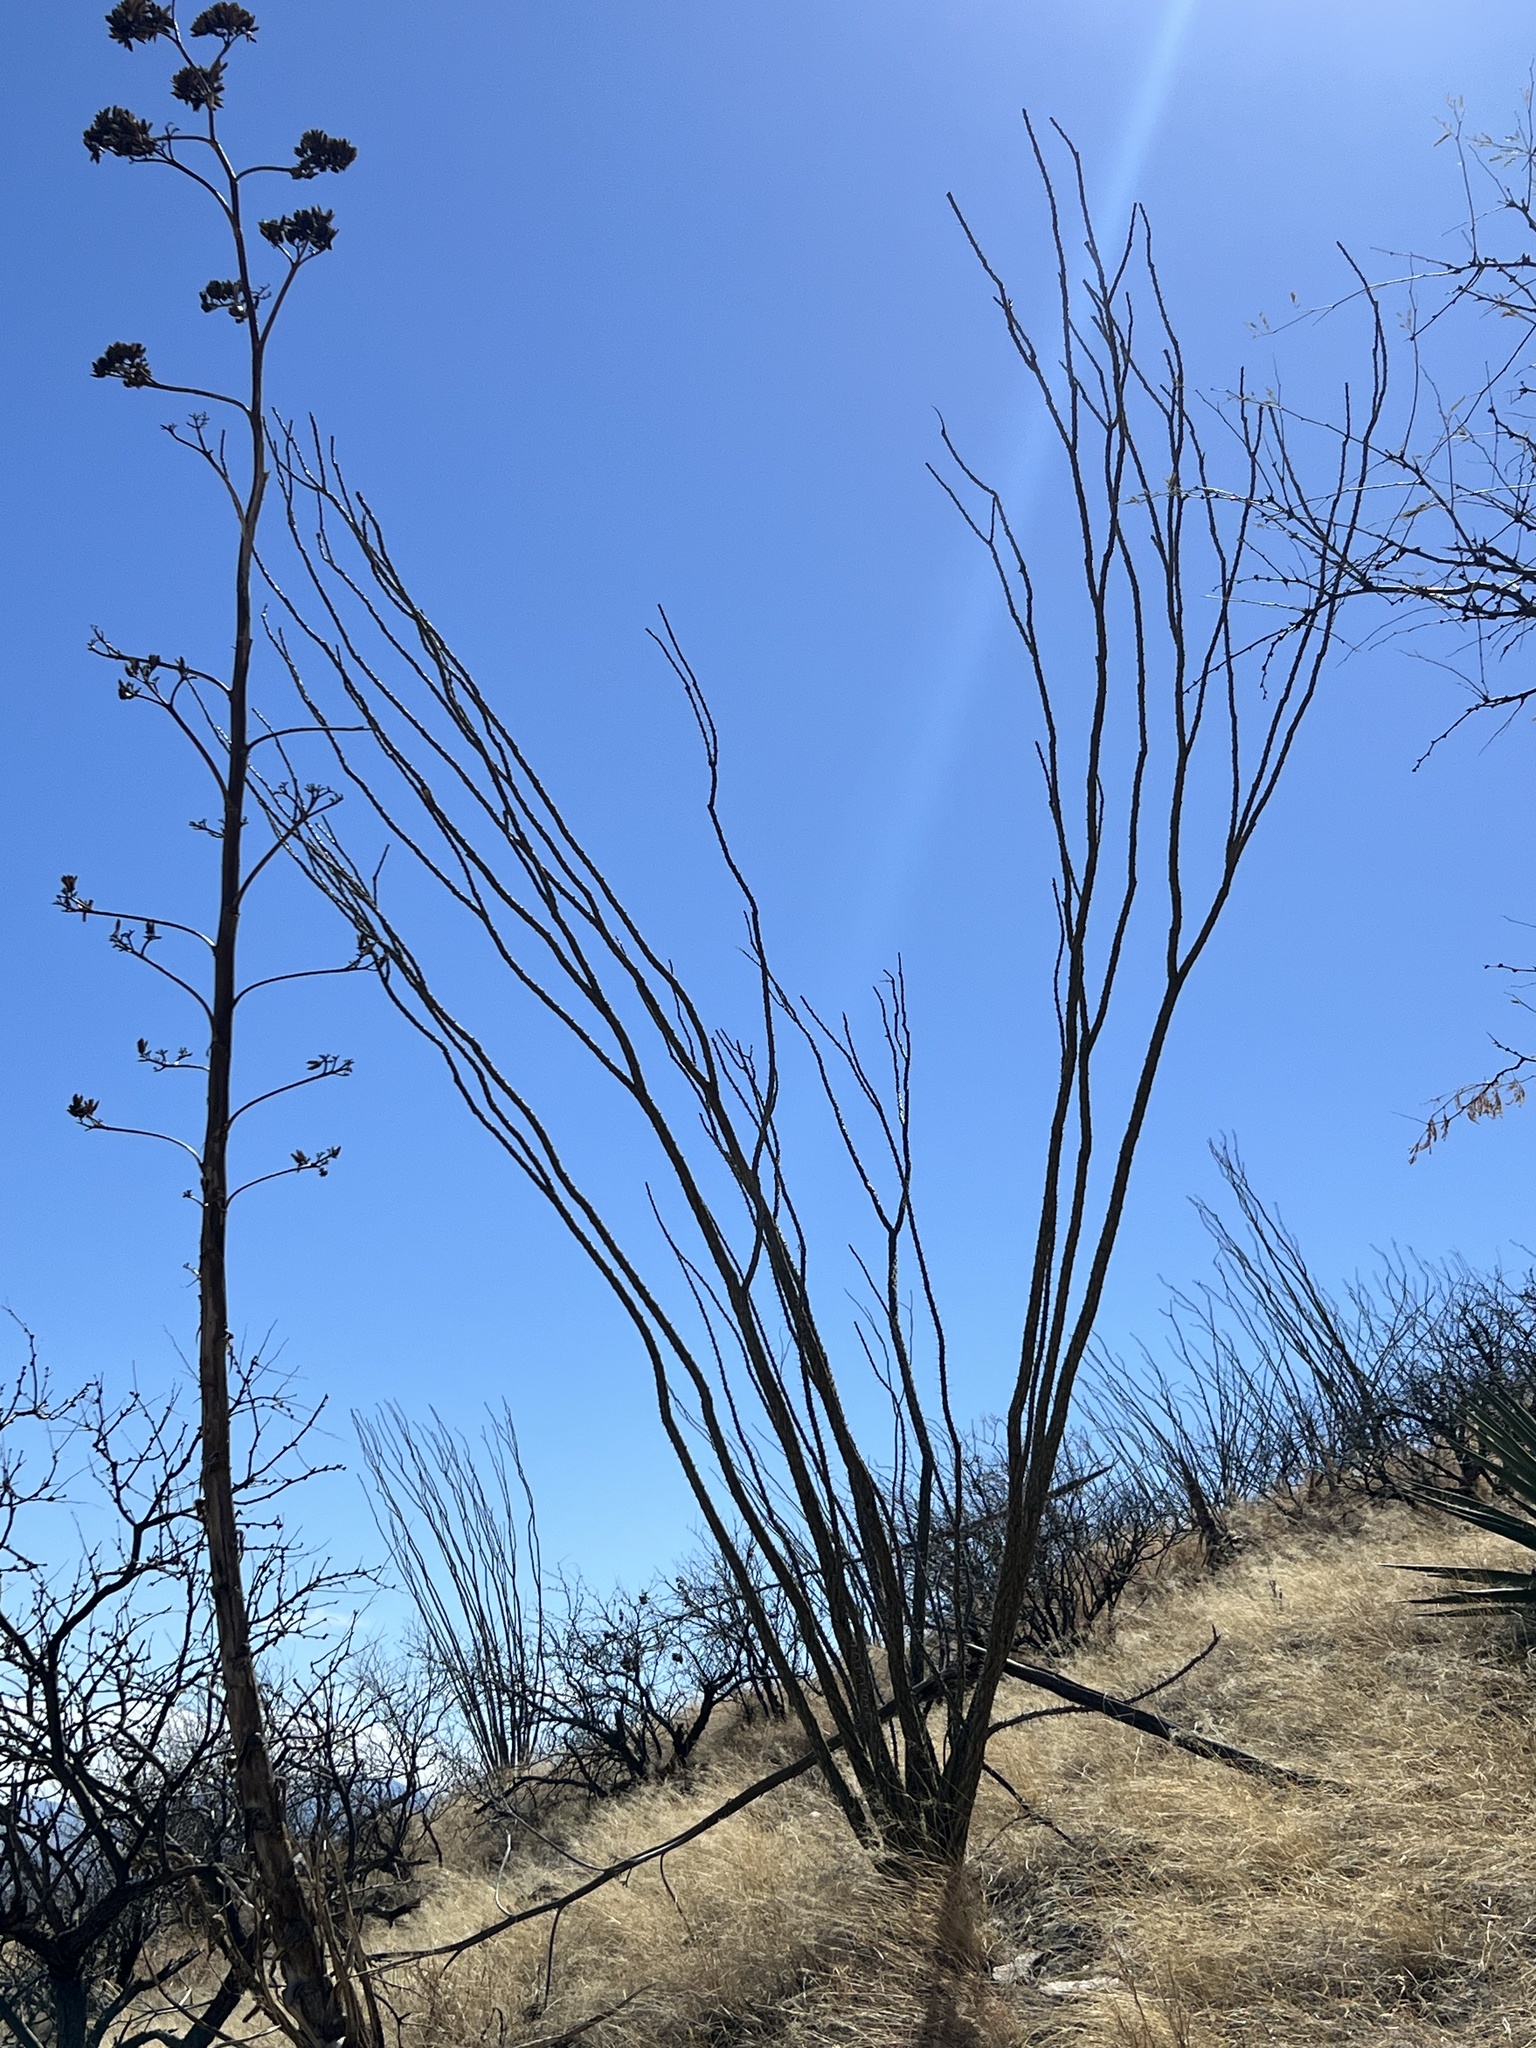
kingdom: Plantae
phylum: Tracheophyta
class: Magnoliopsida
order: Ericales
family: Fouquieriaceae
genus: Fouquieria
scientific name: Fouquieria splendens
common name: Vine-cactus
